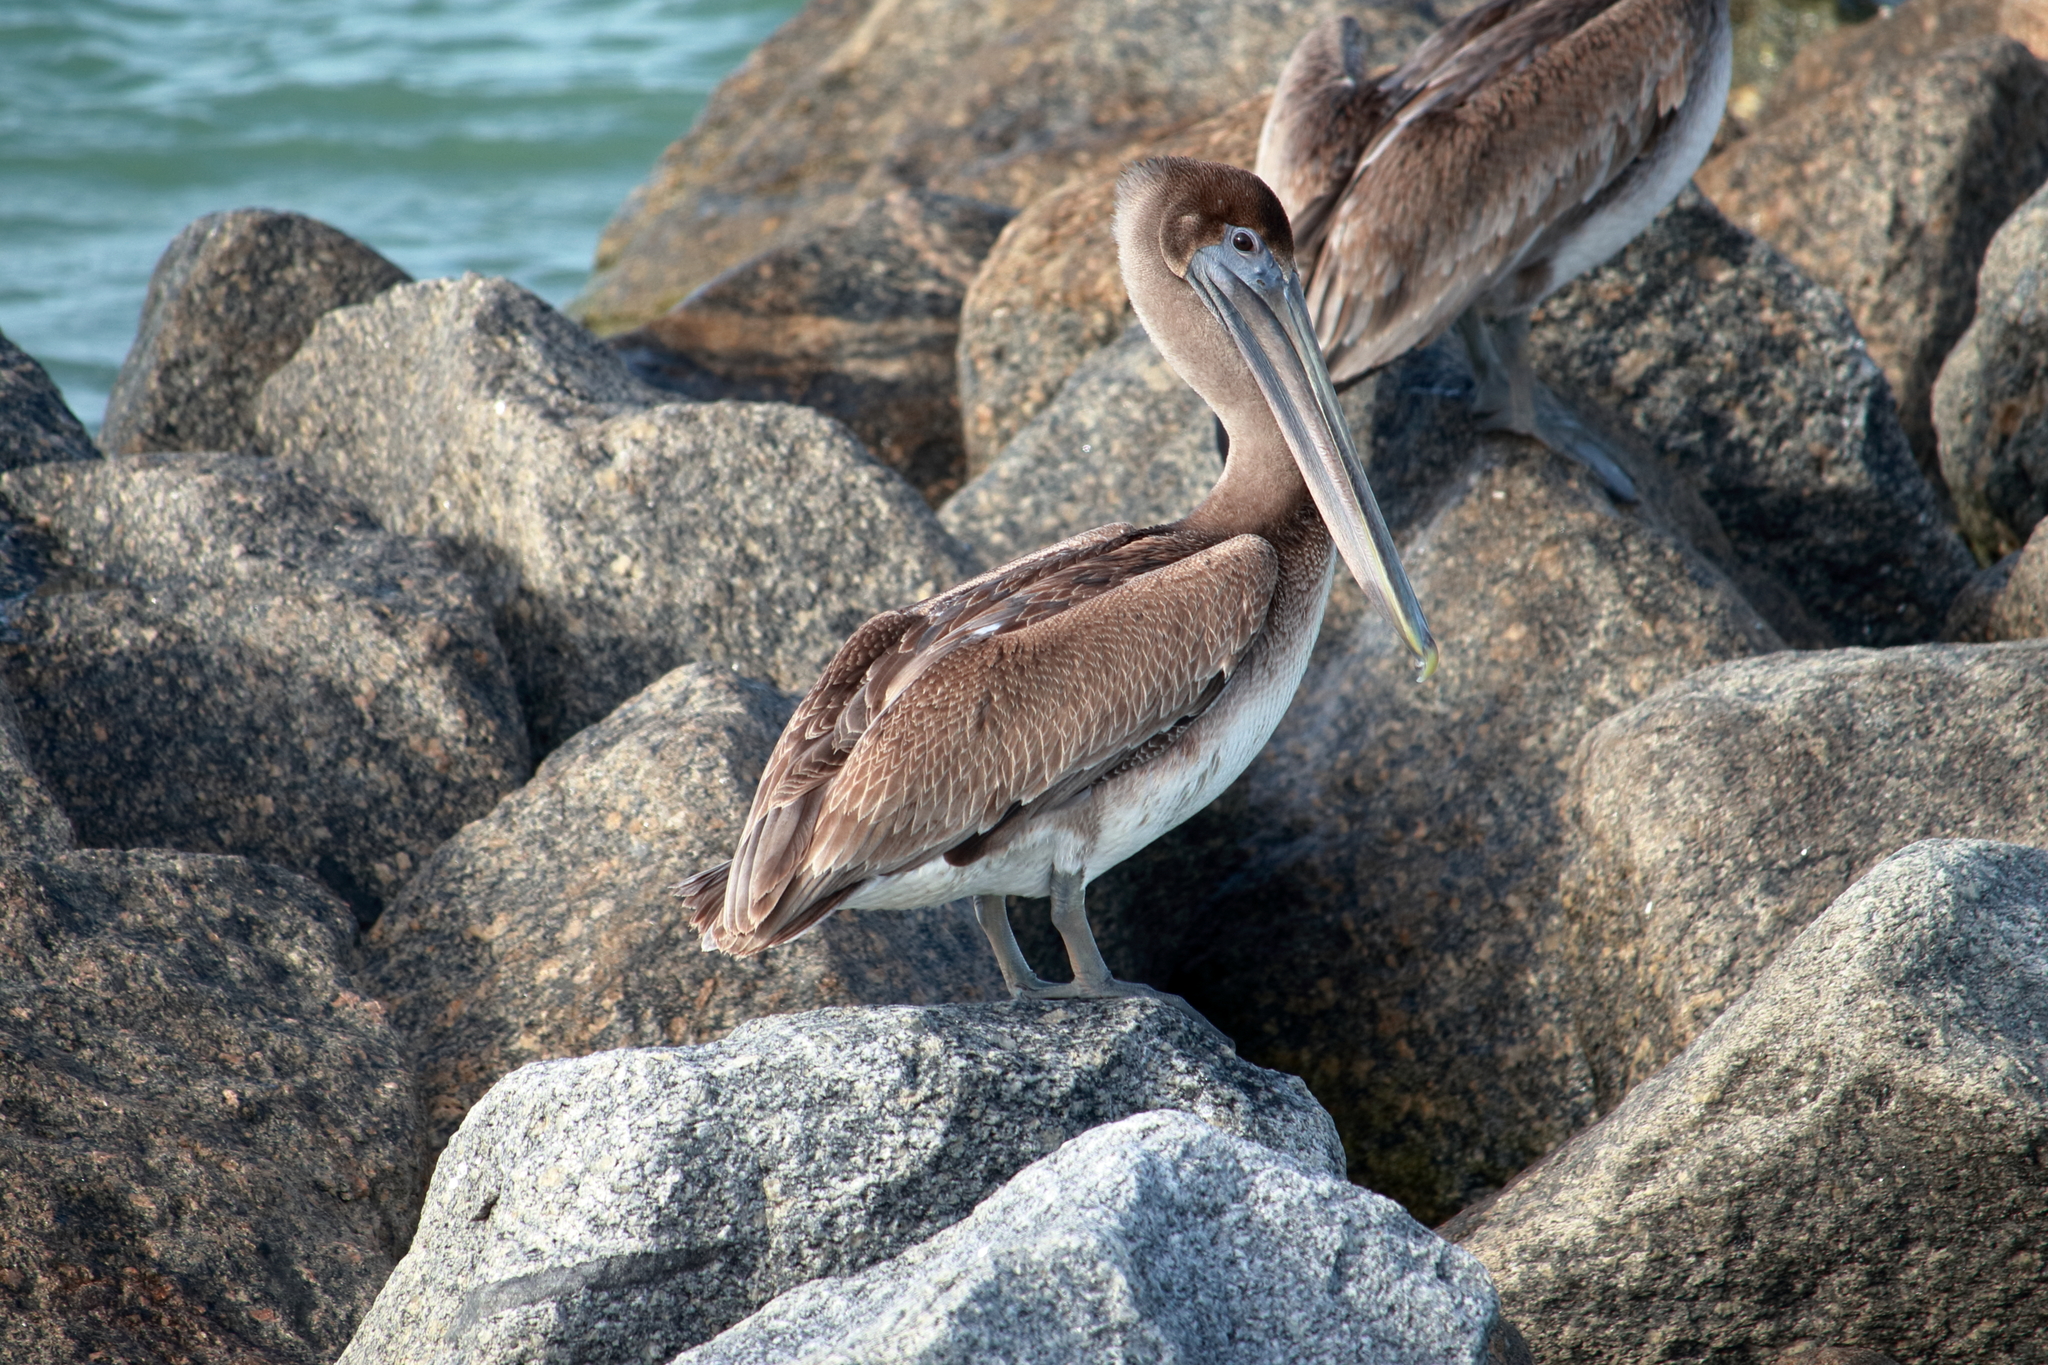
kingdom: Animalia
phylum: Chordata
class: Aves
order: Pelecaniformes
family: Pelecanidae
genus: Pelecanus
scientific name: Pelecanus occidentalis
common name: Brown pelican
